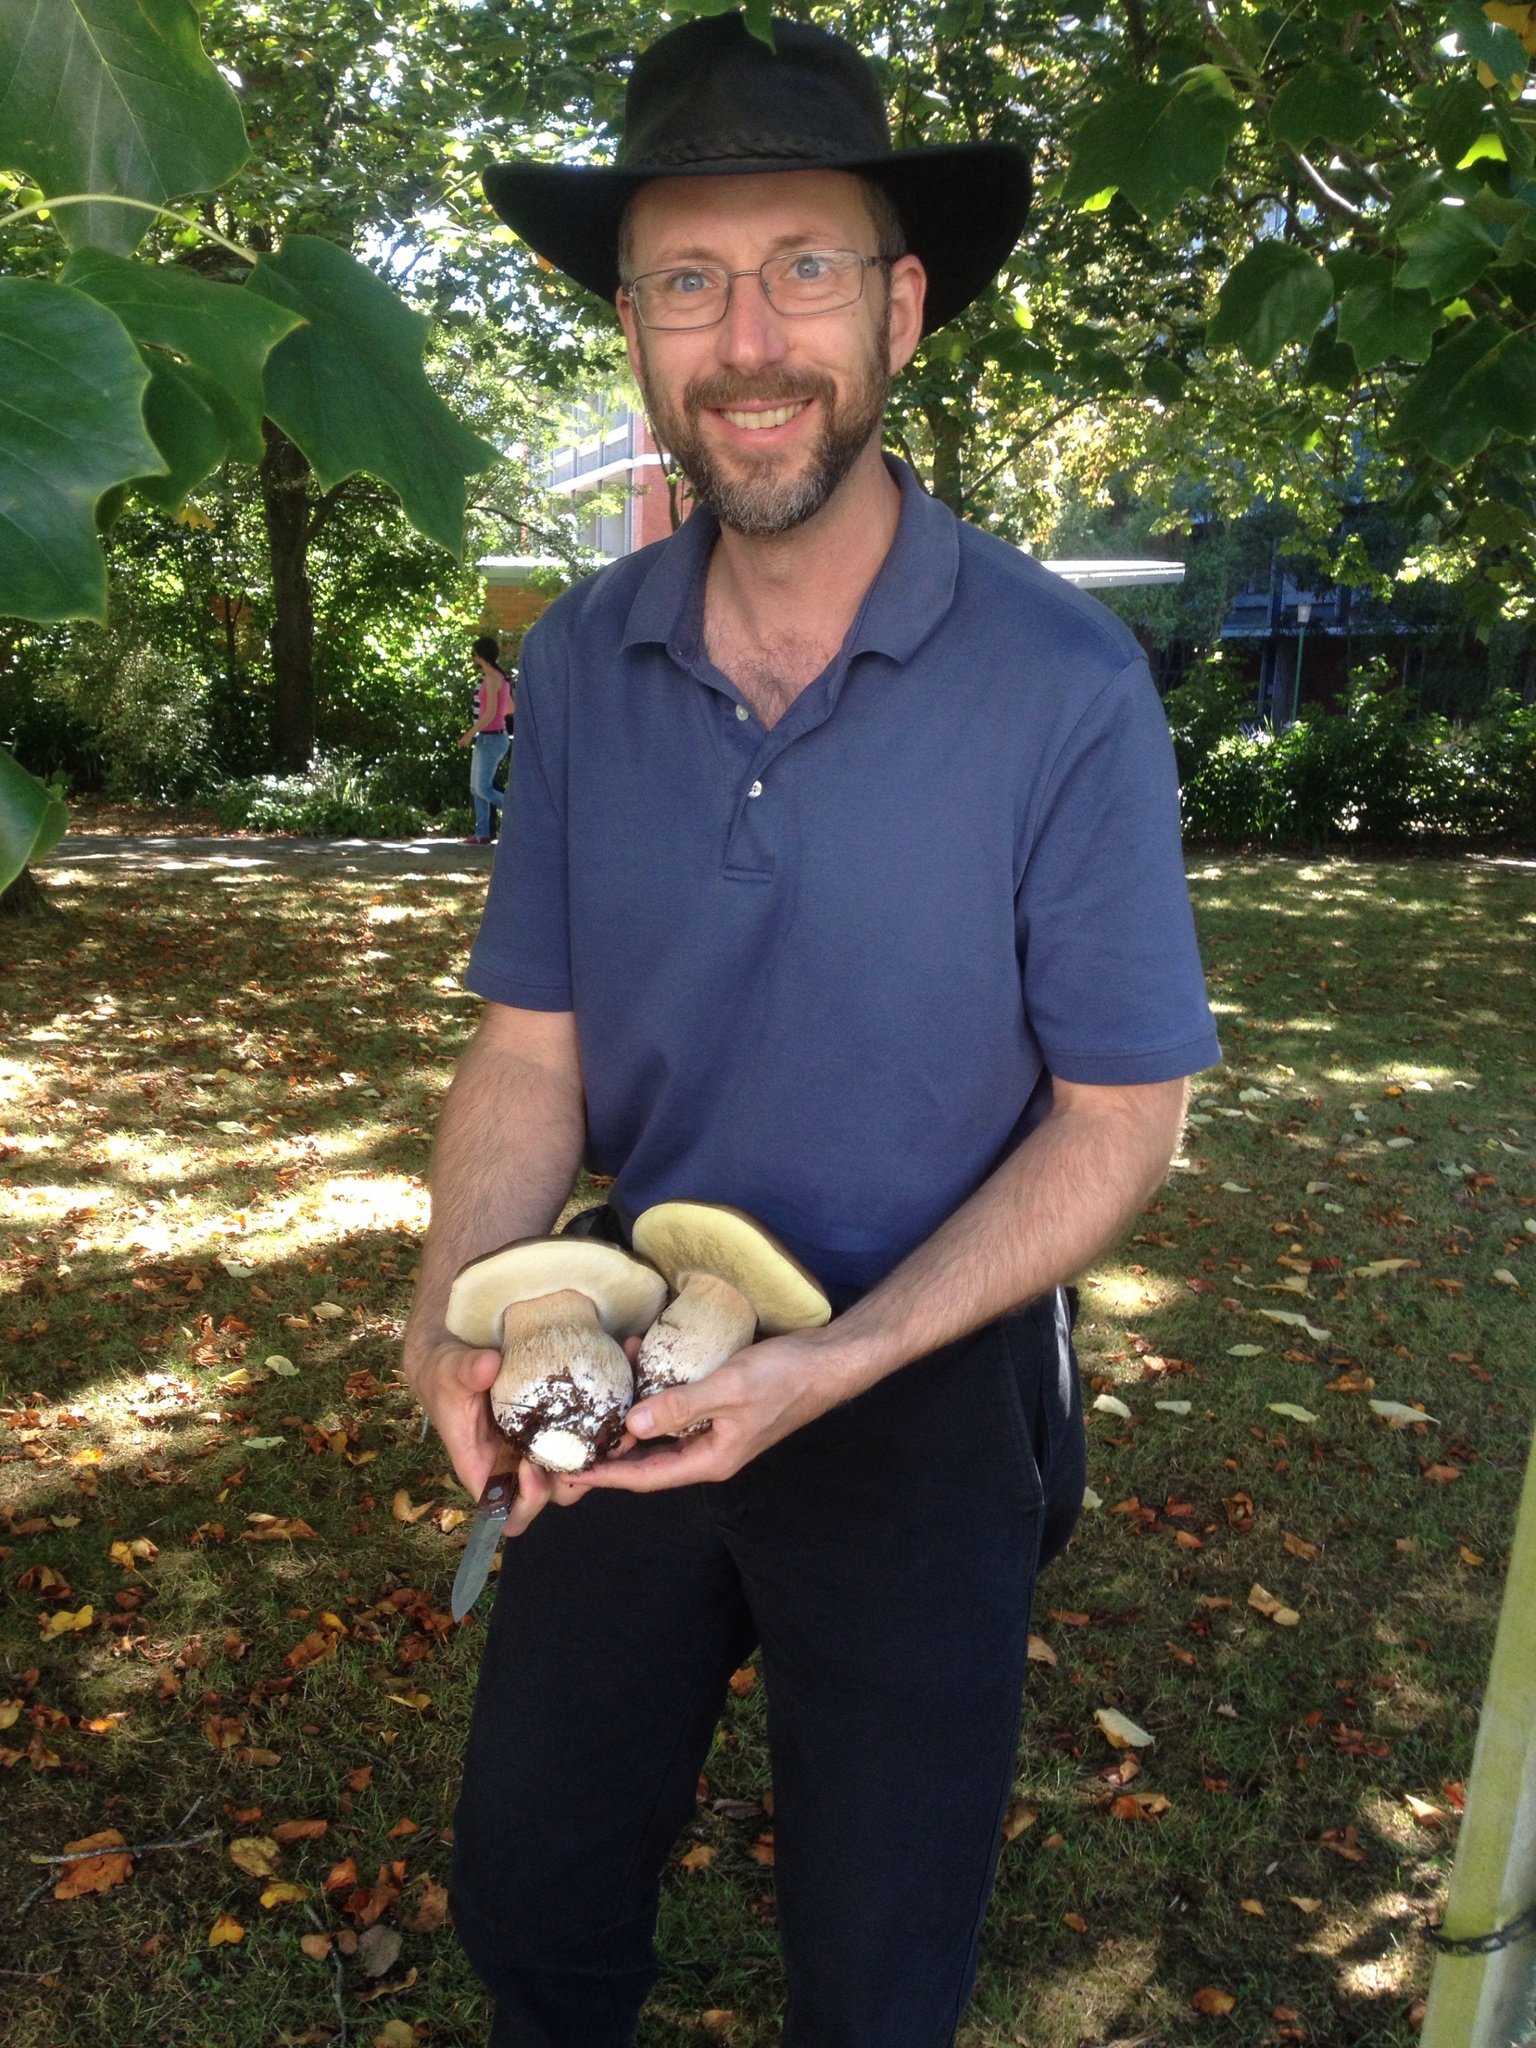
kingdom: Fungi
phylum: Basidiomycota
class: Agaricomycetes
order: Boletales
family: Boletaceae
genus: Boletus
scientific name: Boletus edulis
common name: Cep
